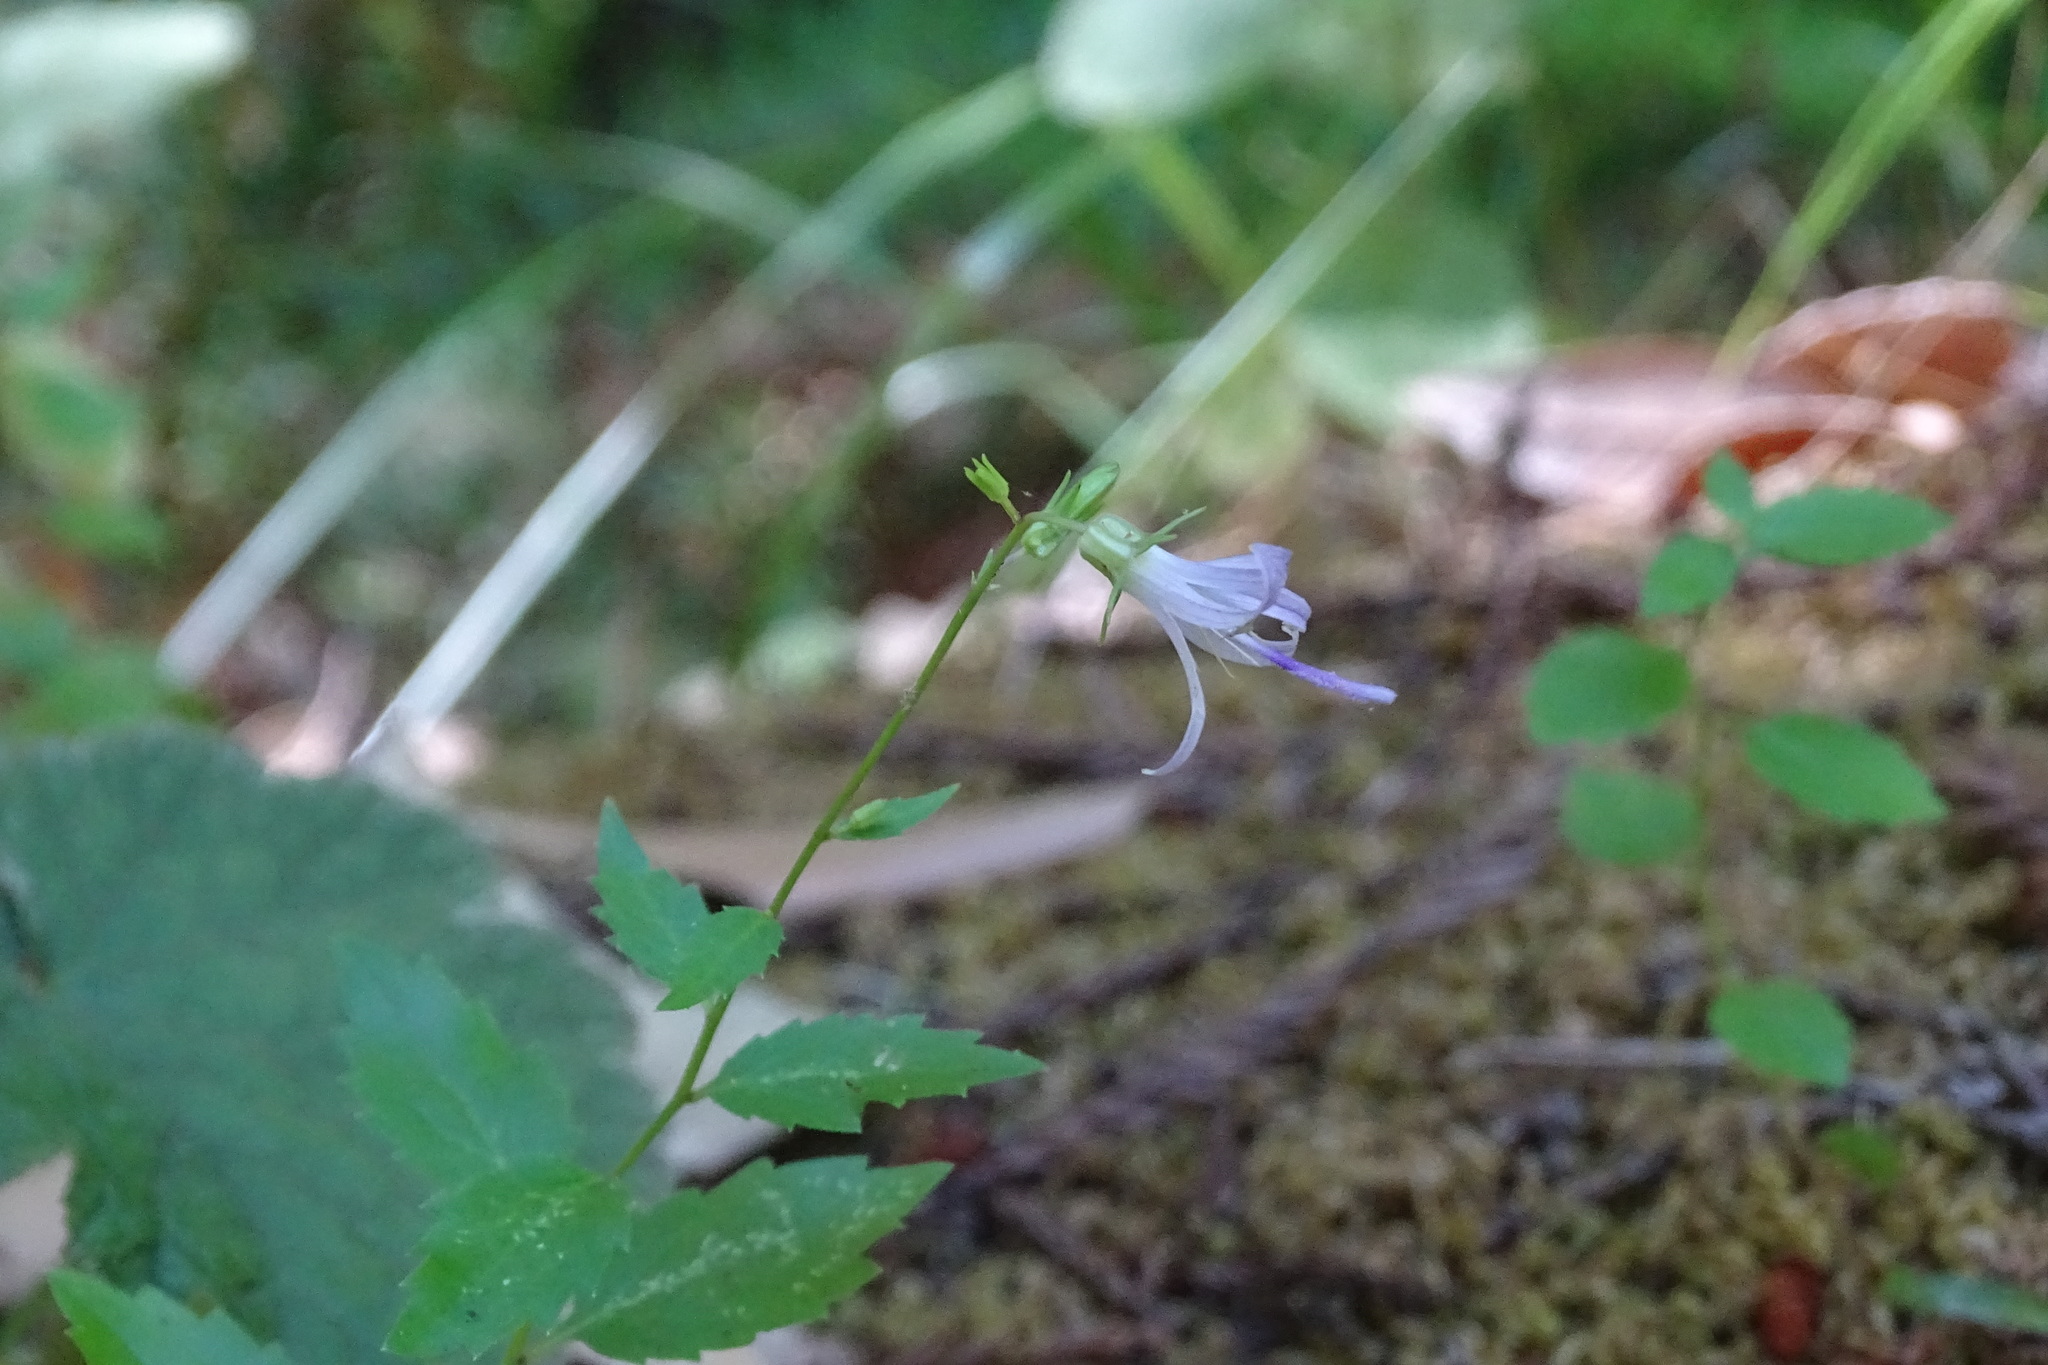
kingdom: Plantae
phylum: Tracheophyta
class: Magnoliopsida
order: Asterales
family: Campanulaceae
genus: Smithiastrum
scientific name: Smithiastrum prenanthoides
